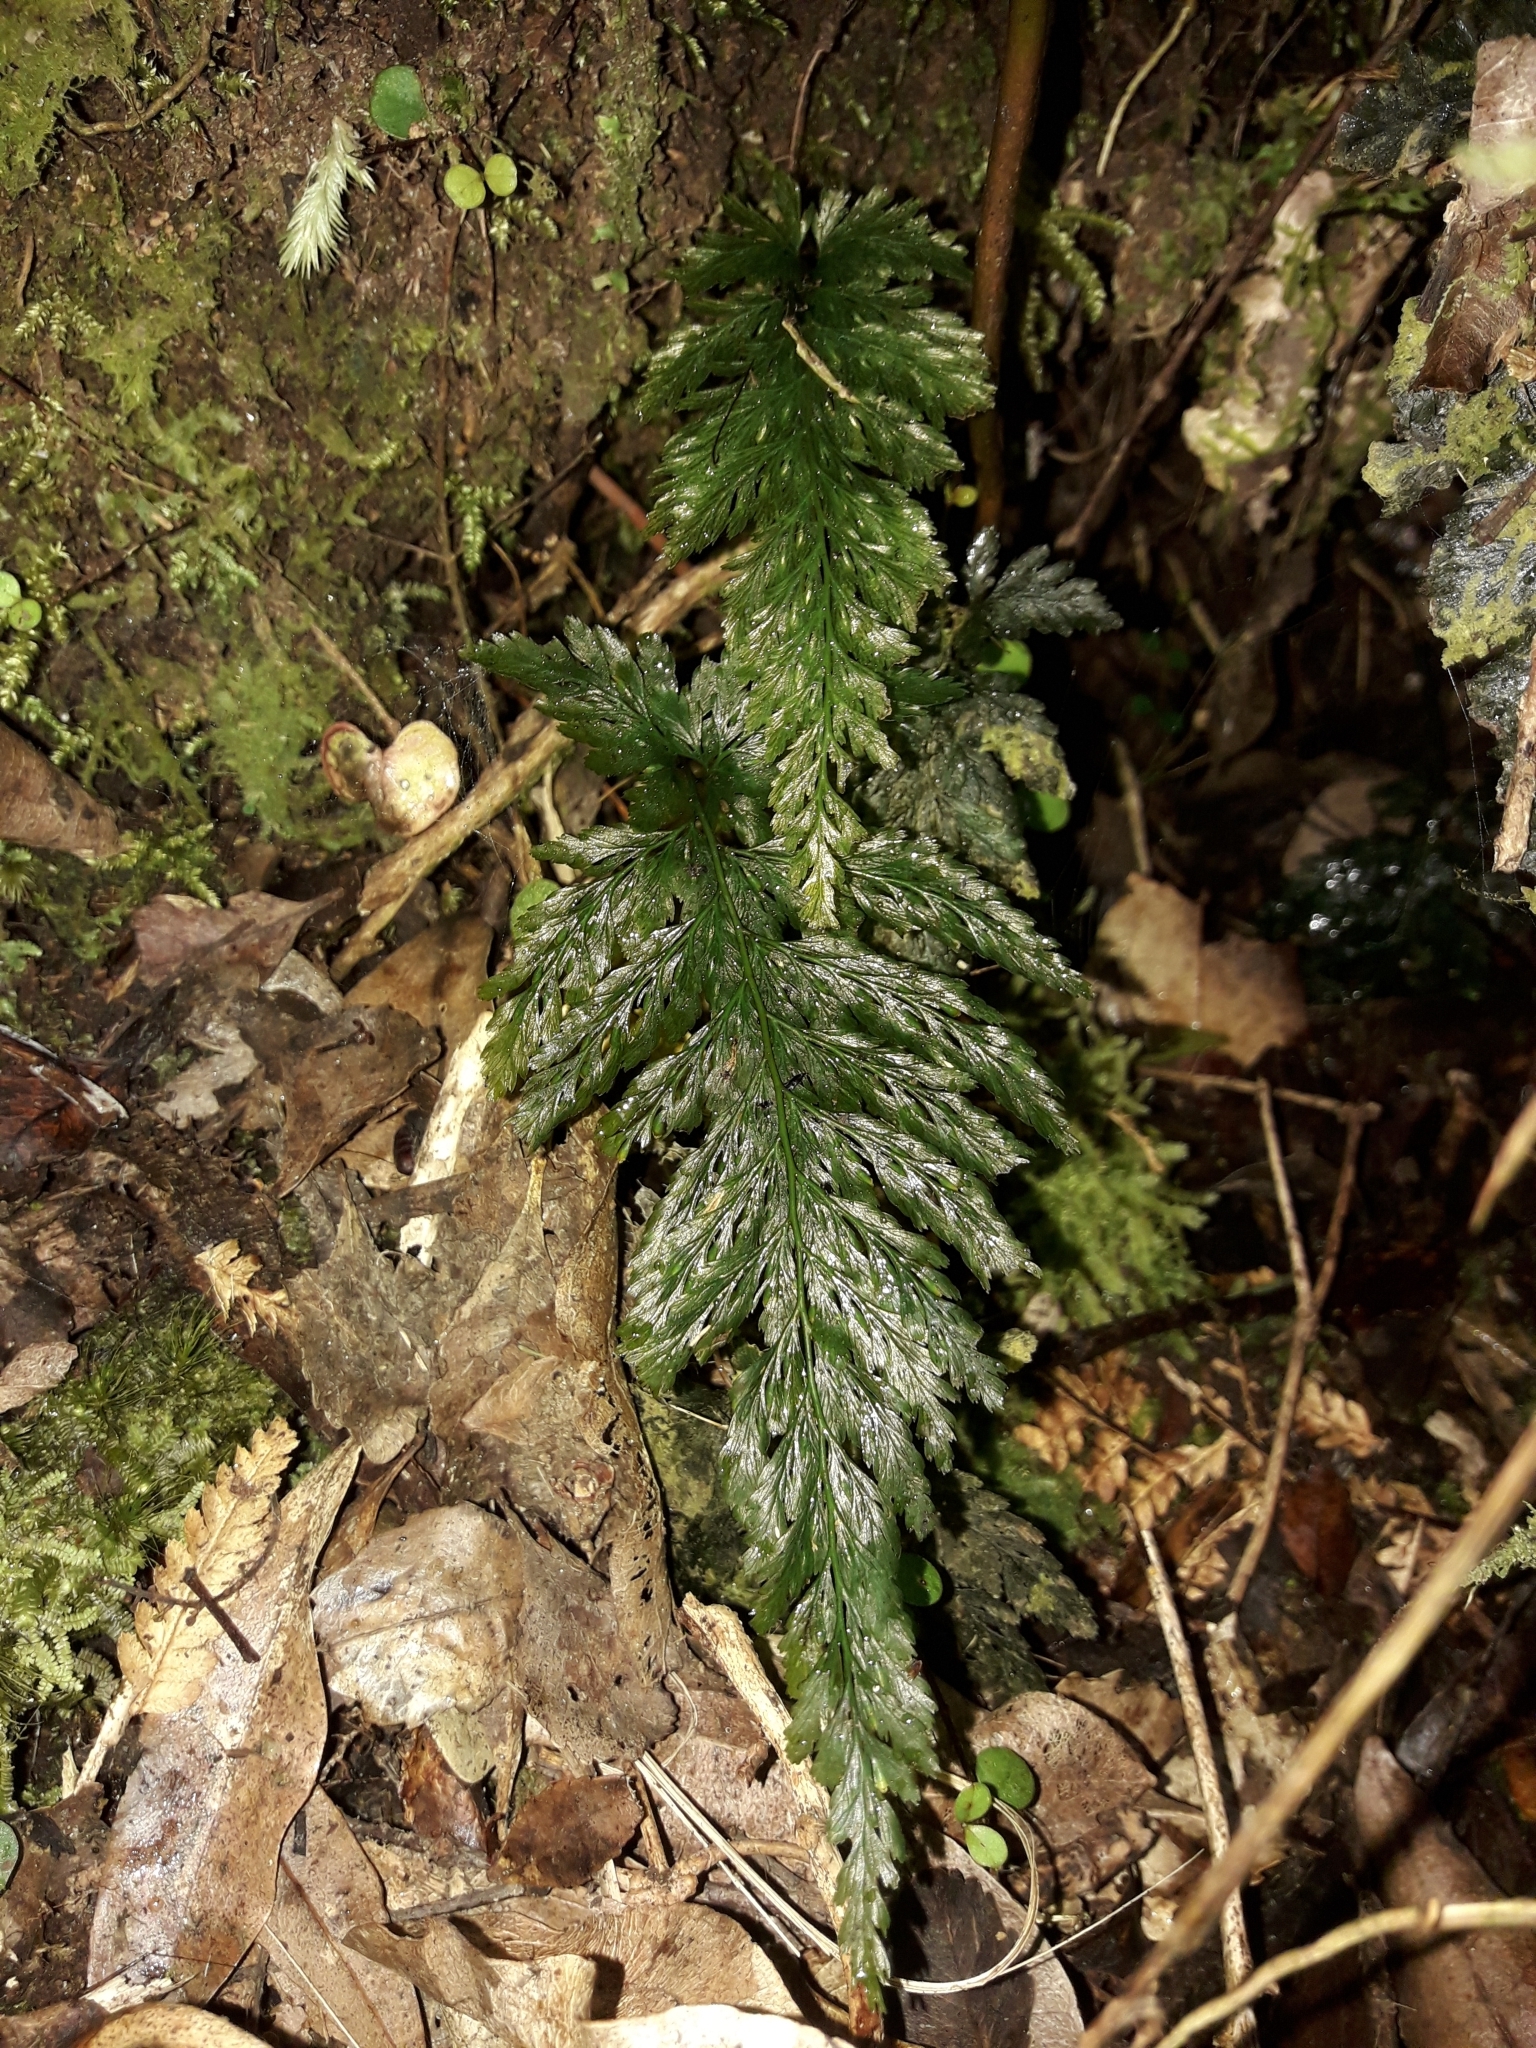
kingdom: Plantae
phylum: Tracheophyta
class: Polypodiopsida
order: Hymenophyllales
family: Hymenophyllaceae
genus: Abrodictyum
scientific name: Abrodictyum elongatum
